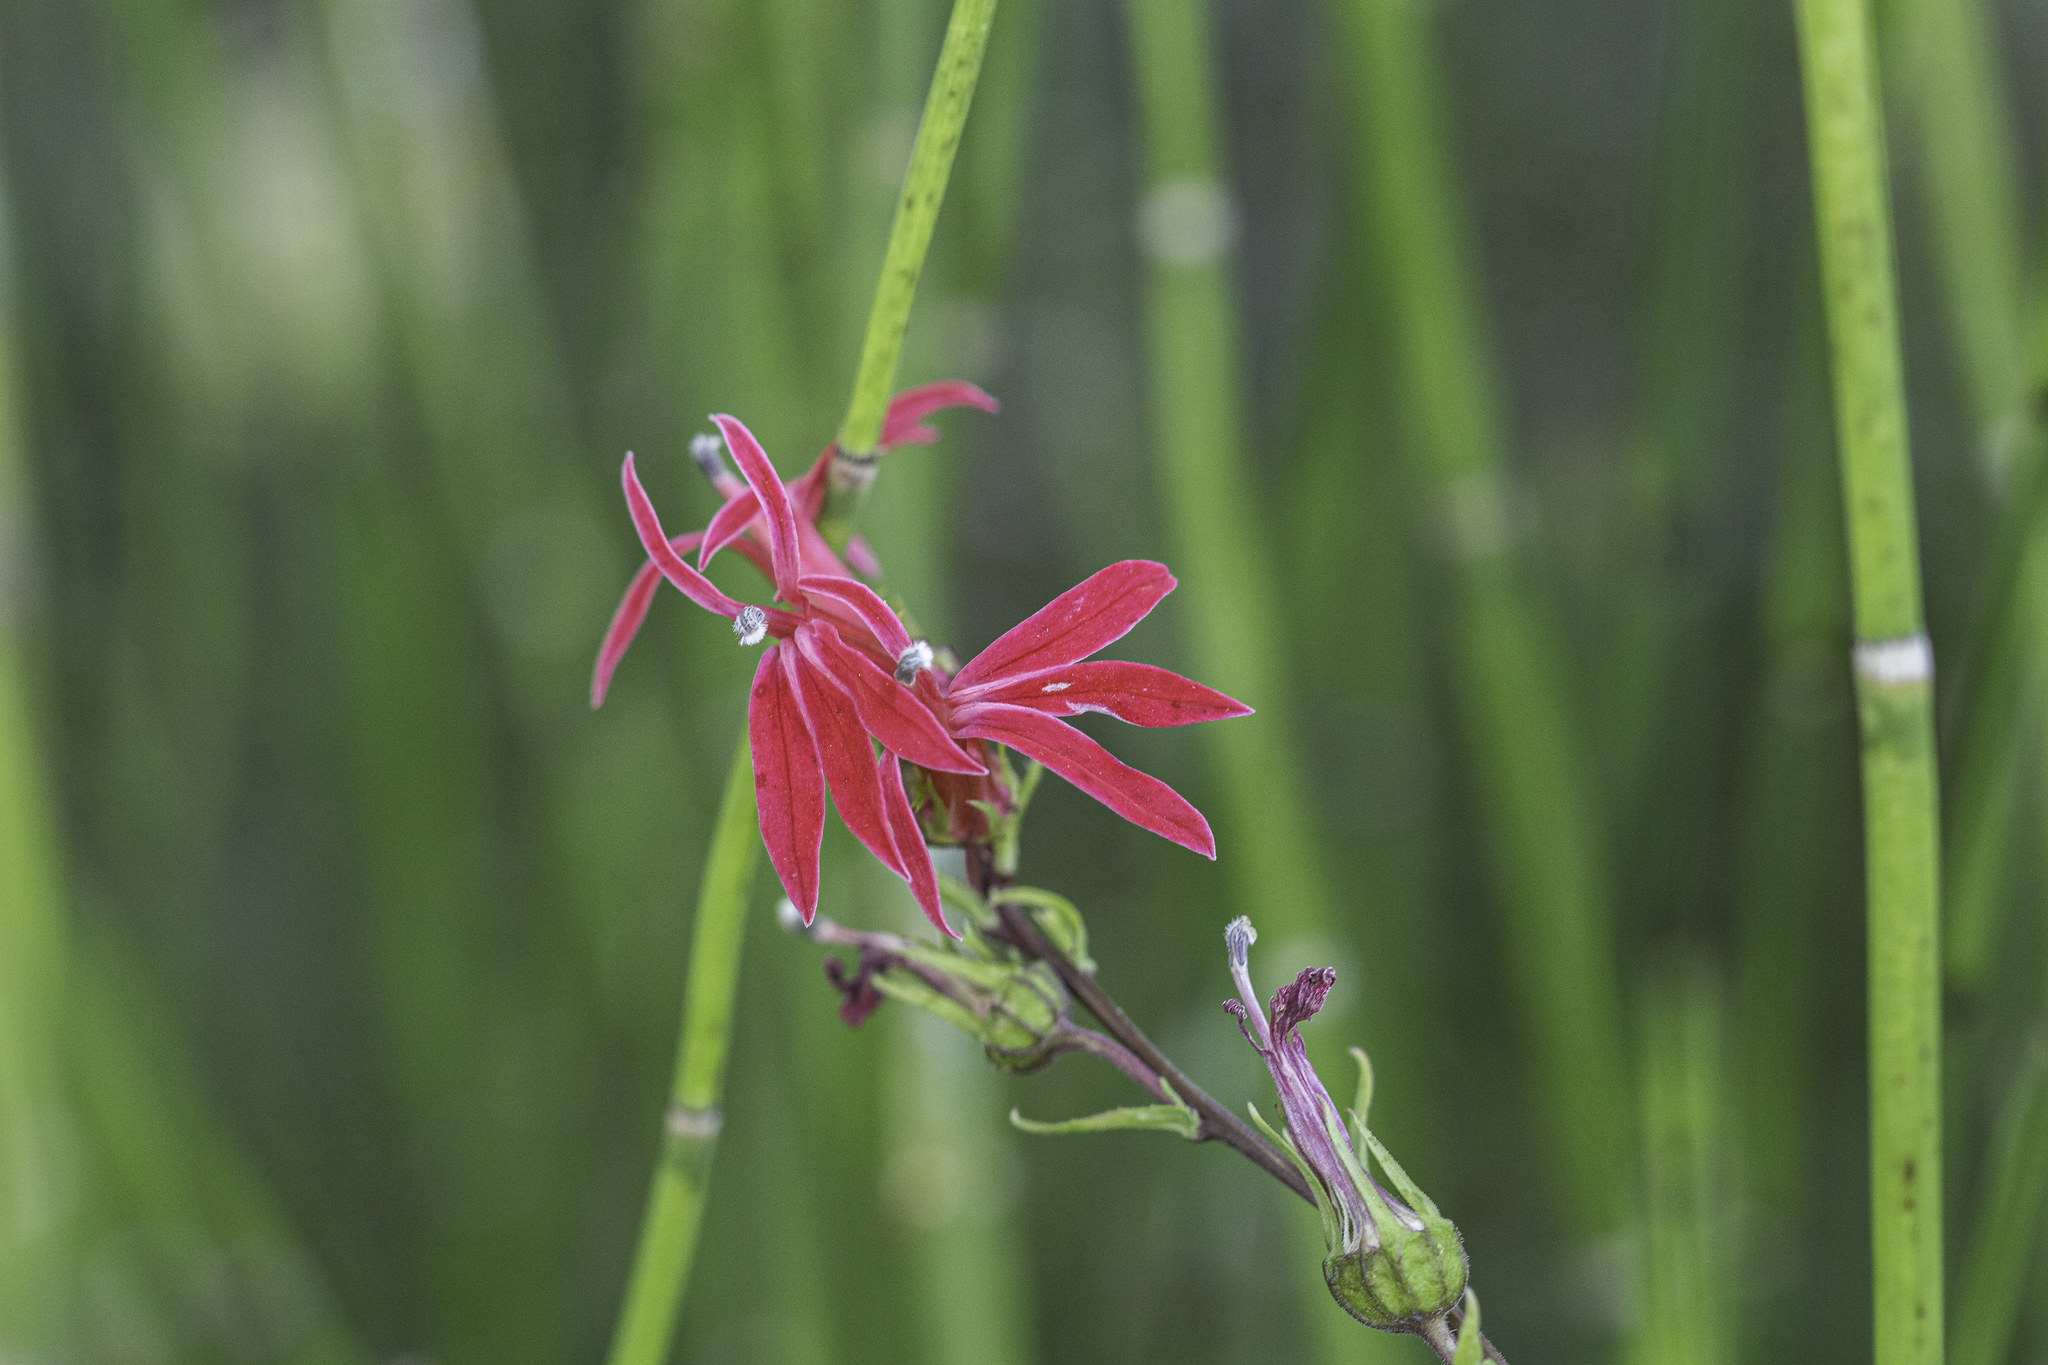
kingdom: Plantae
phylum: Tracheophyta
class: Magnoliopsida
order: Asterales
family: Campanulaceae
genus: Lobelia
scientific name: Lobelia cardinalis
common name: Cardinal flower
